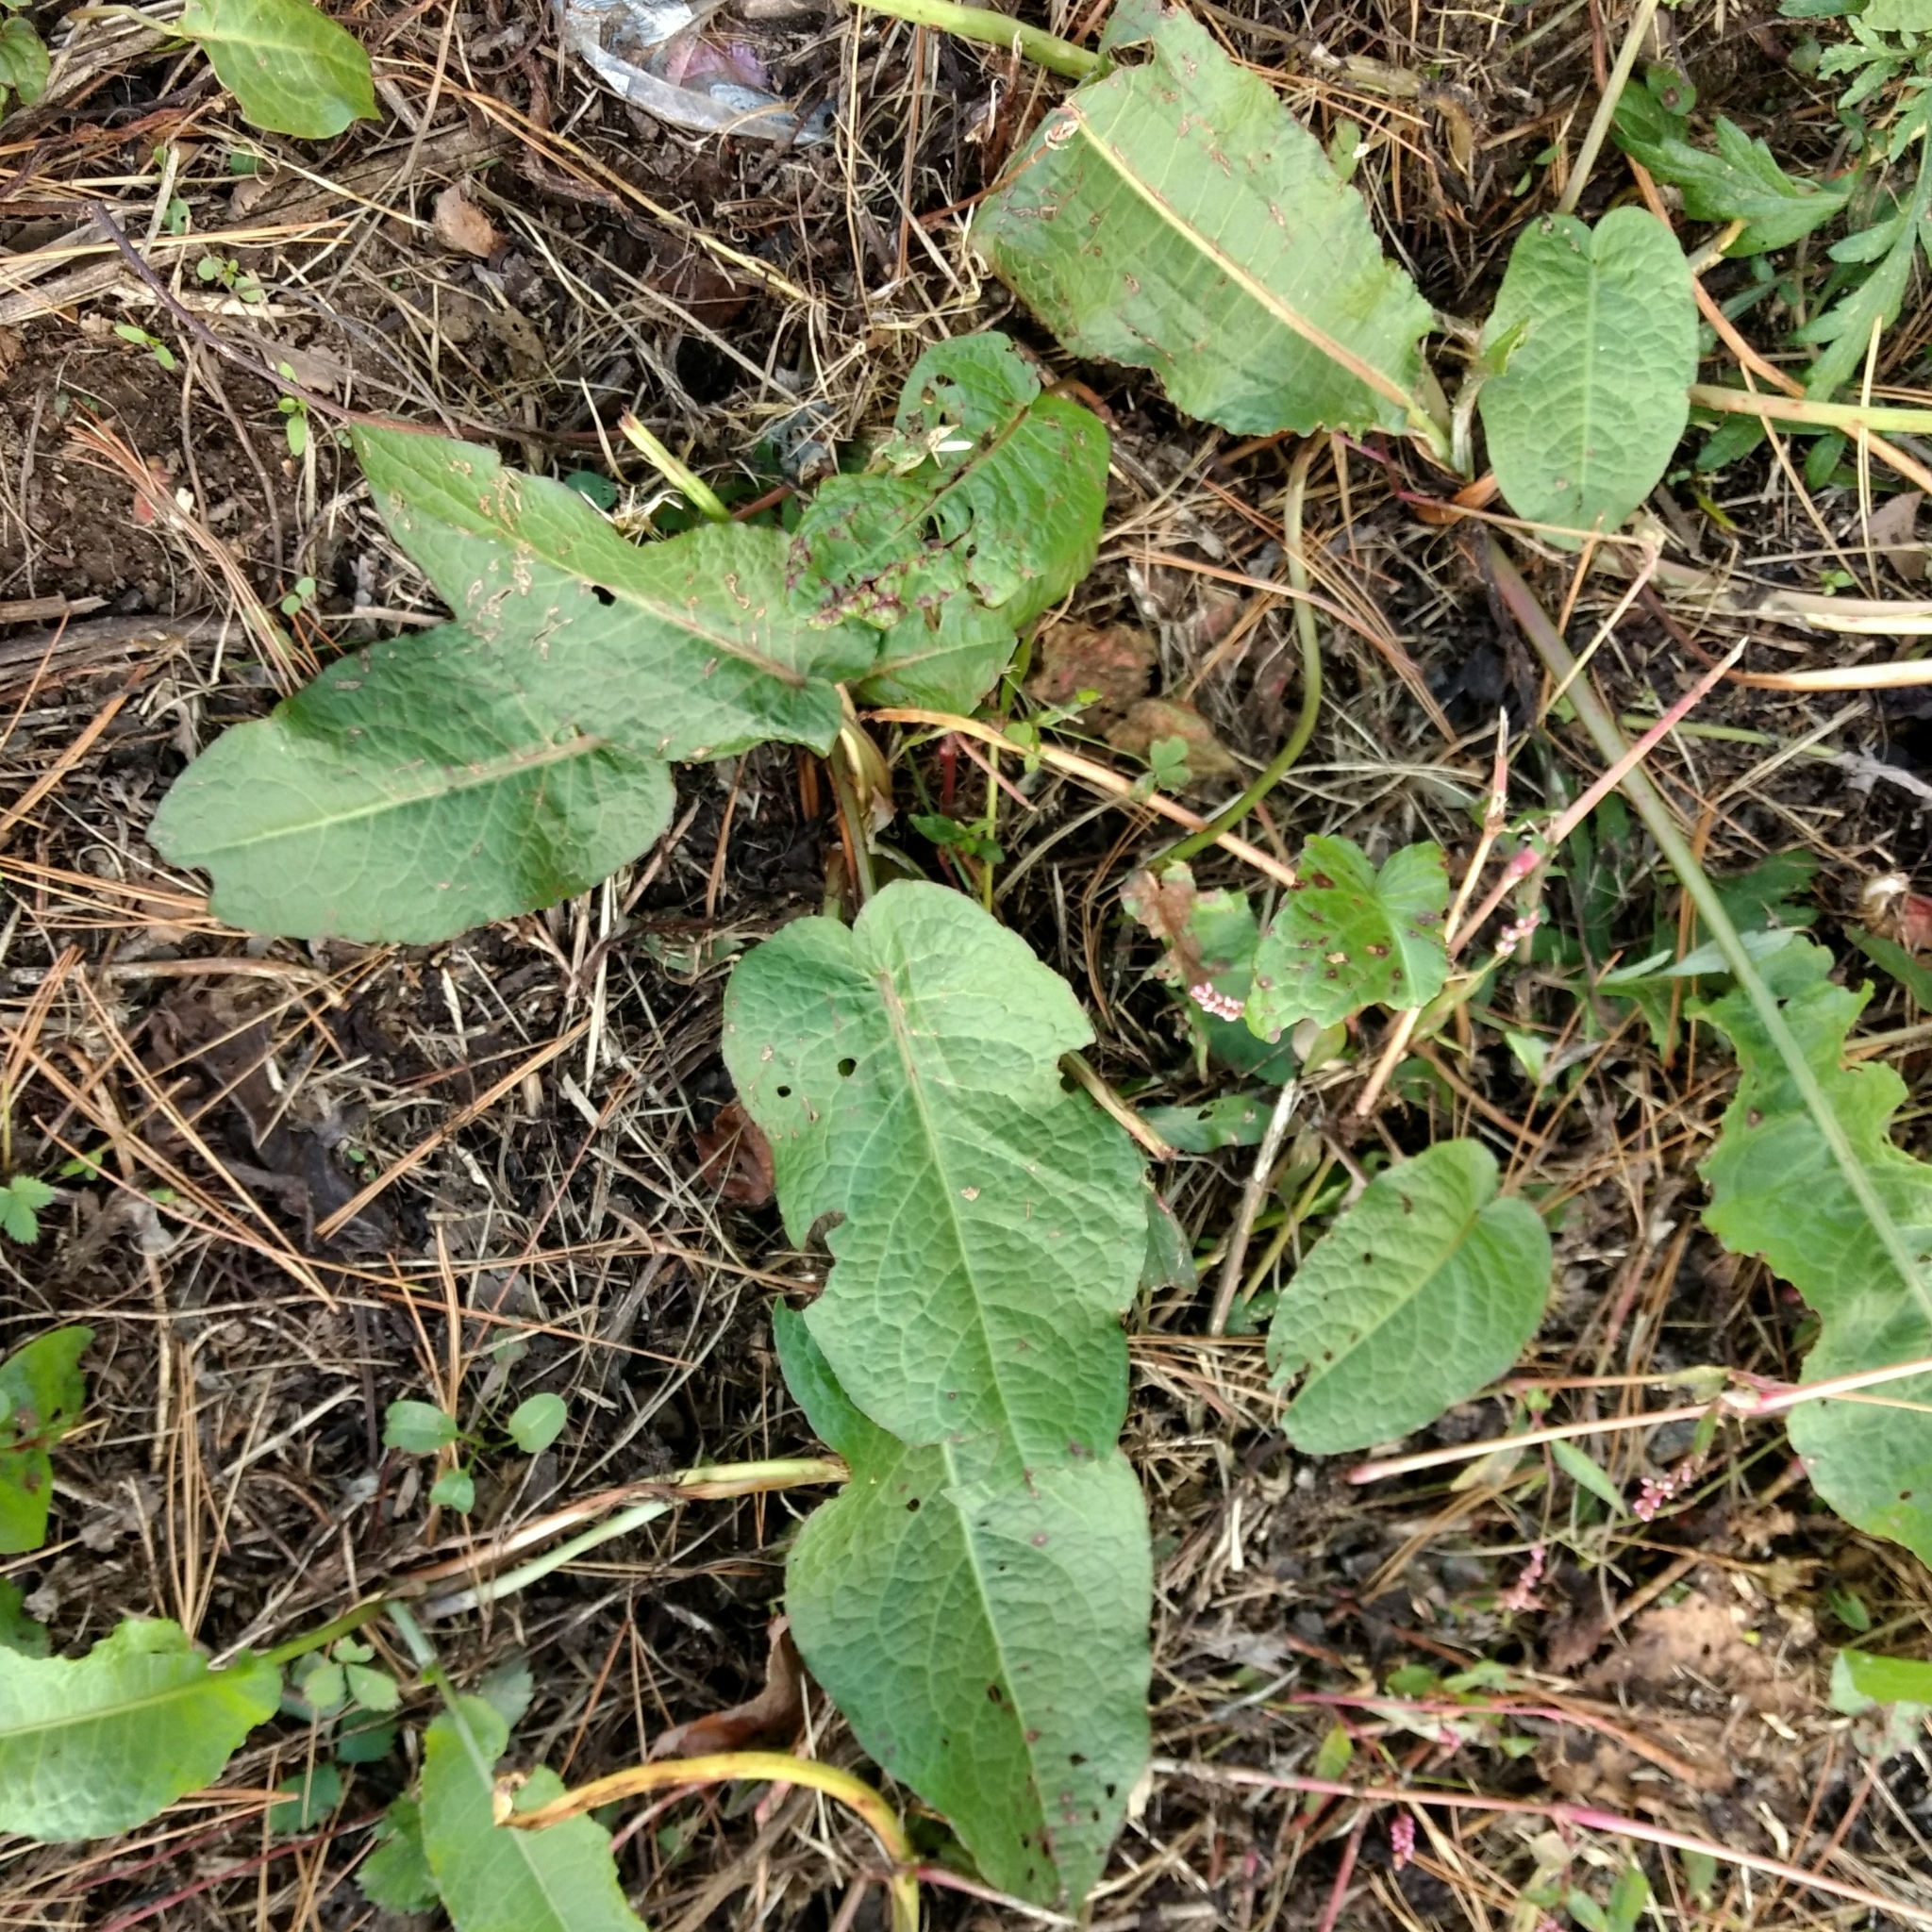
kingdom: Plantae
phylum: Tracheophyta
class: Magnoliopsida
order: Caryophyllales
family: Polygonaceae
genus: Rumex
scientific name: Rumex obtusifolius
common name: Bitter dock
